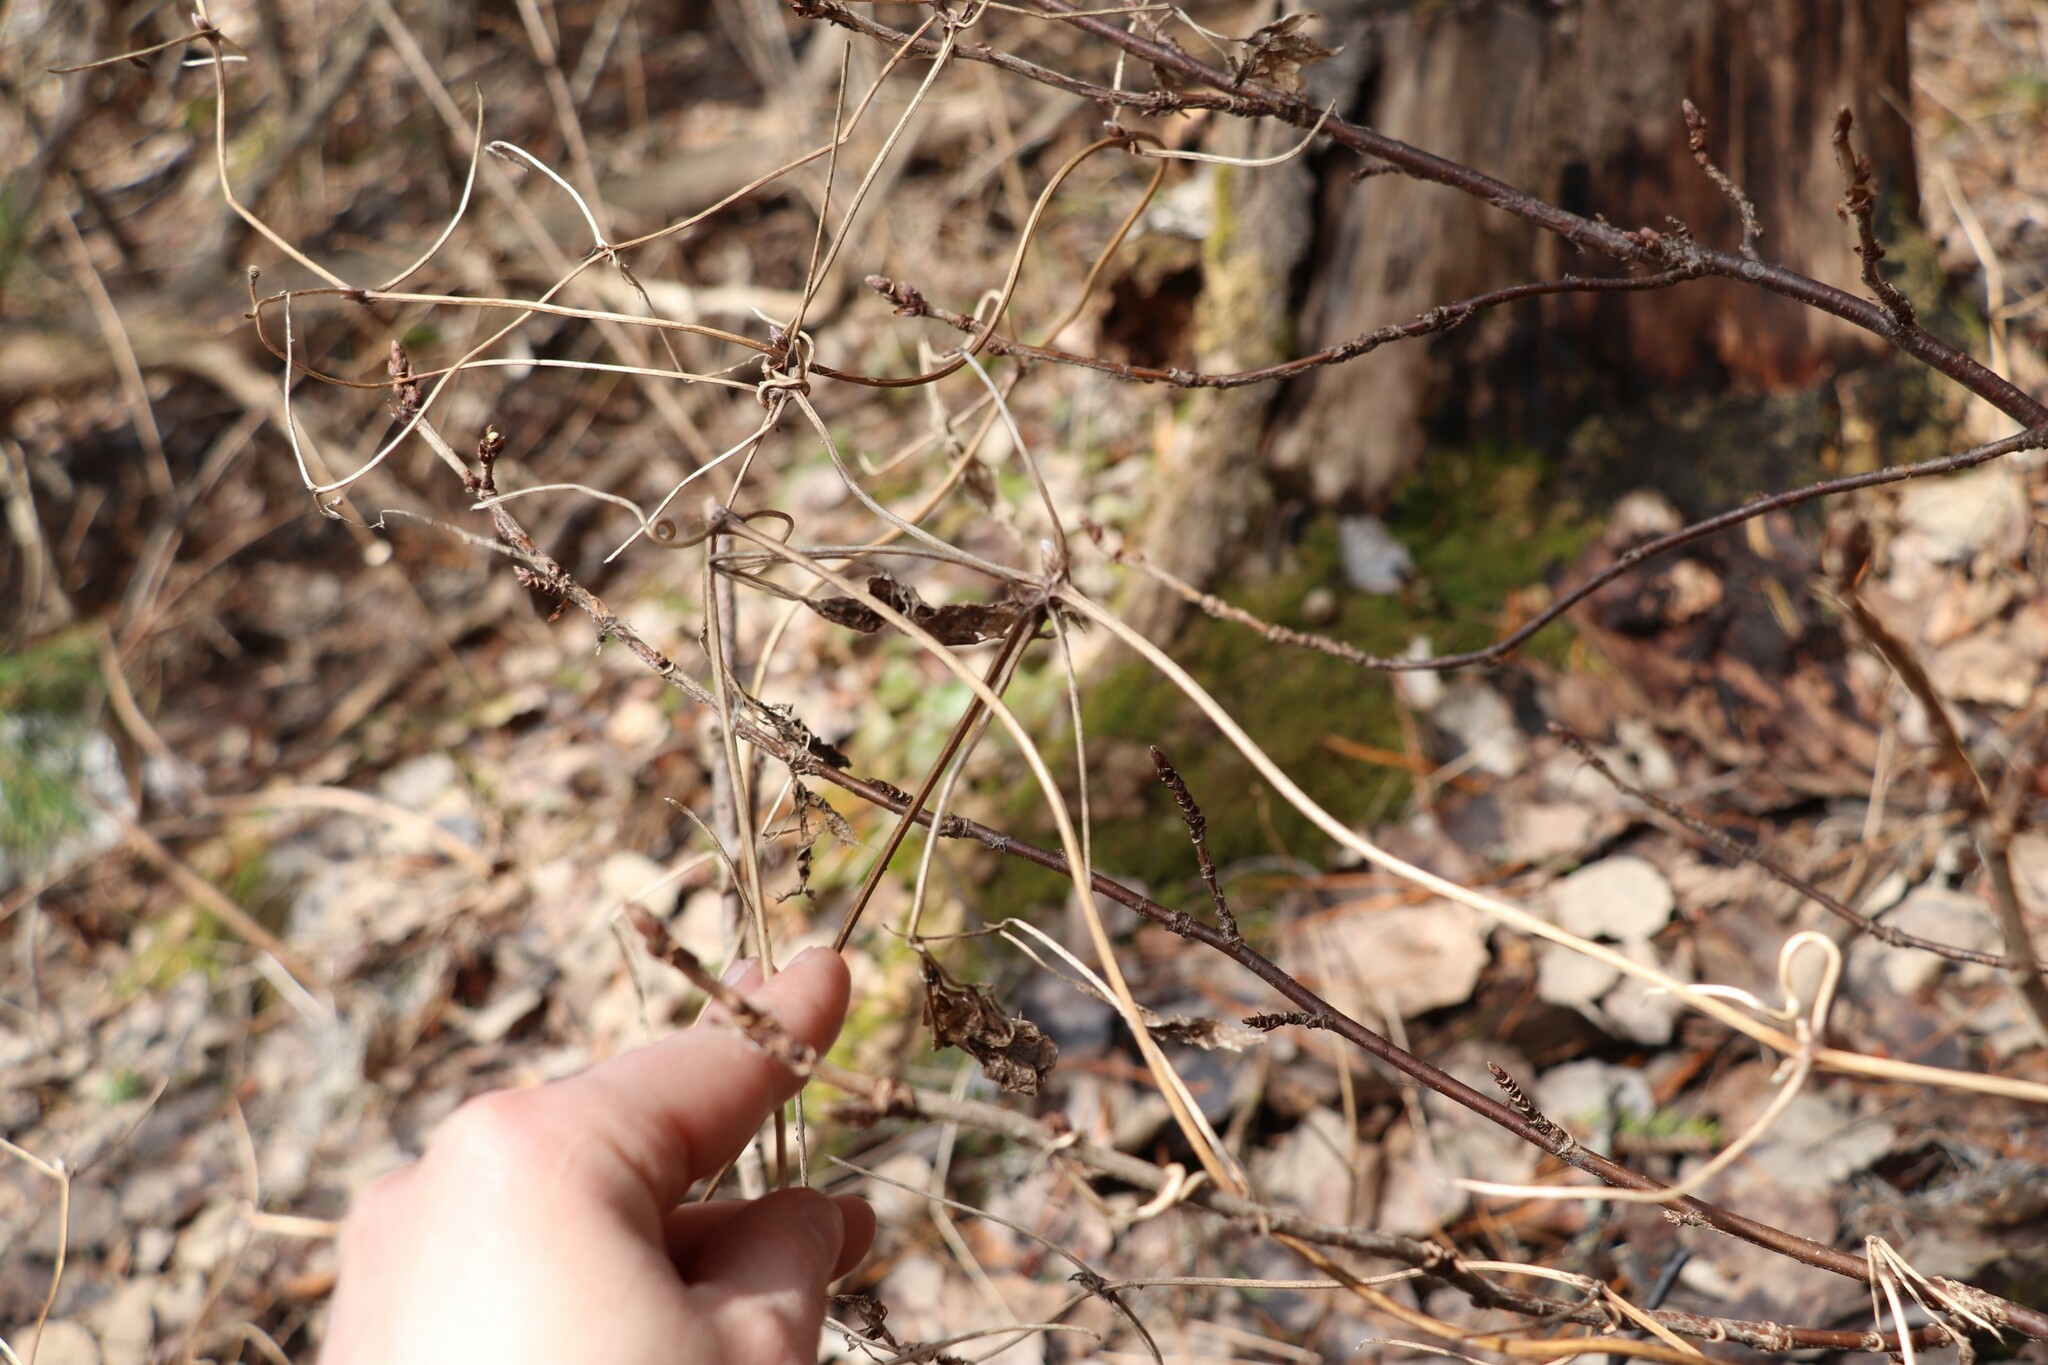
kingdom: Plantae
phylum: Tracheophyta
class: Magnoliopsida
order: Ranunculales
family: Ranunculaceae
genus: Clematis
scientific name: Clematis sibirica
